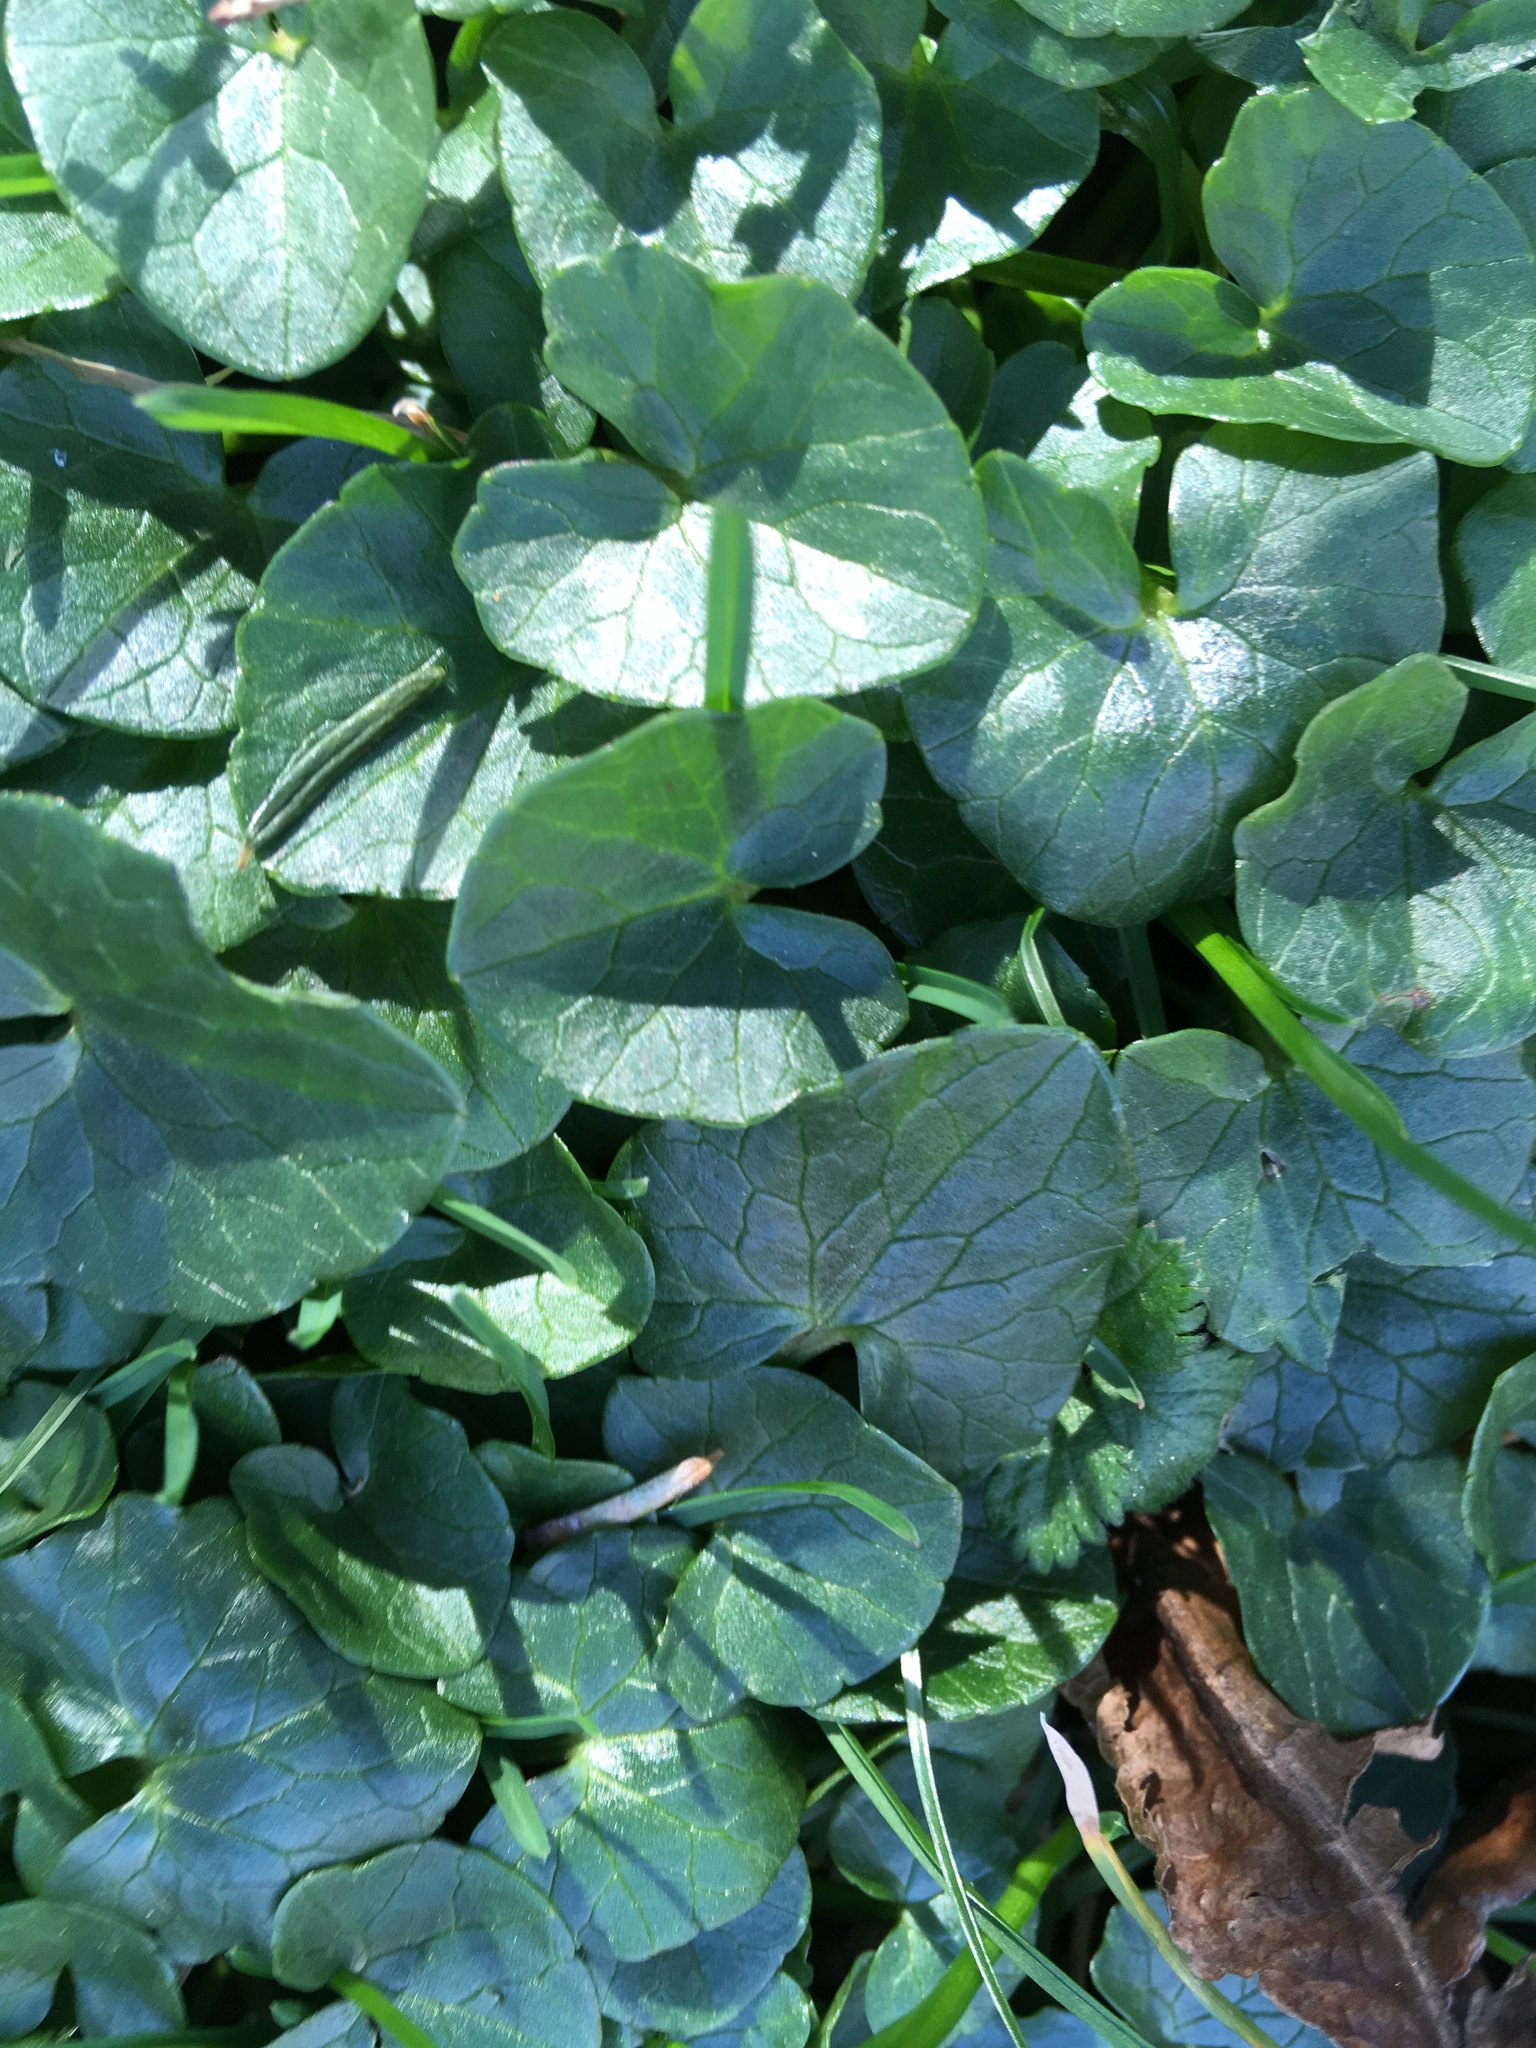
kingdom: Plantae
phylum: Tracheophyta
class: Magnoliopsida
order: Ranunculales
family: Ranunculaceae
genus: Ficaria
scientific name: Ficaria verna
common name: Lesser celandine
